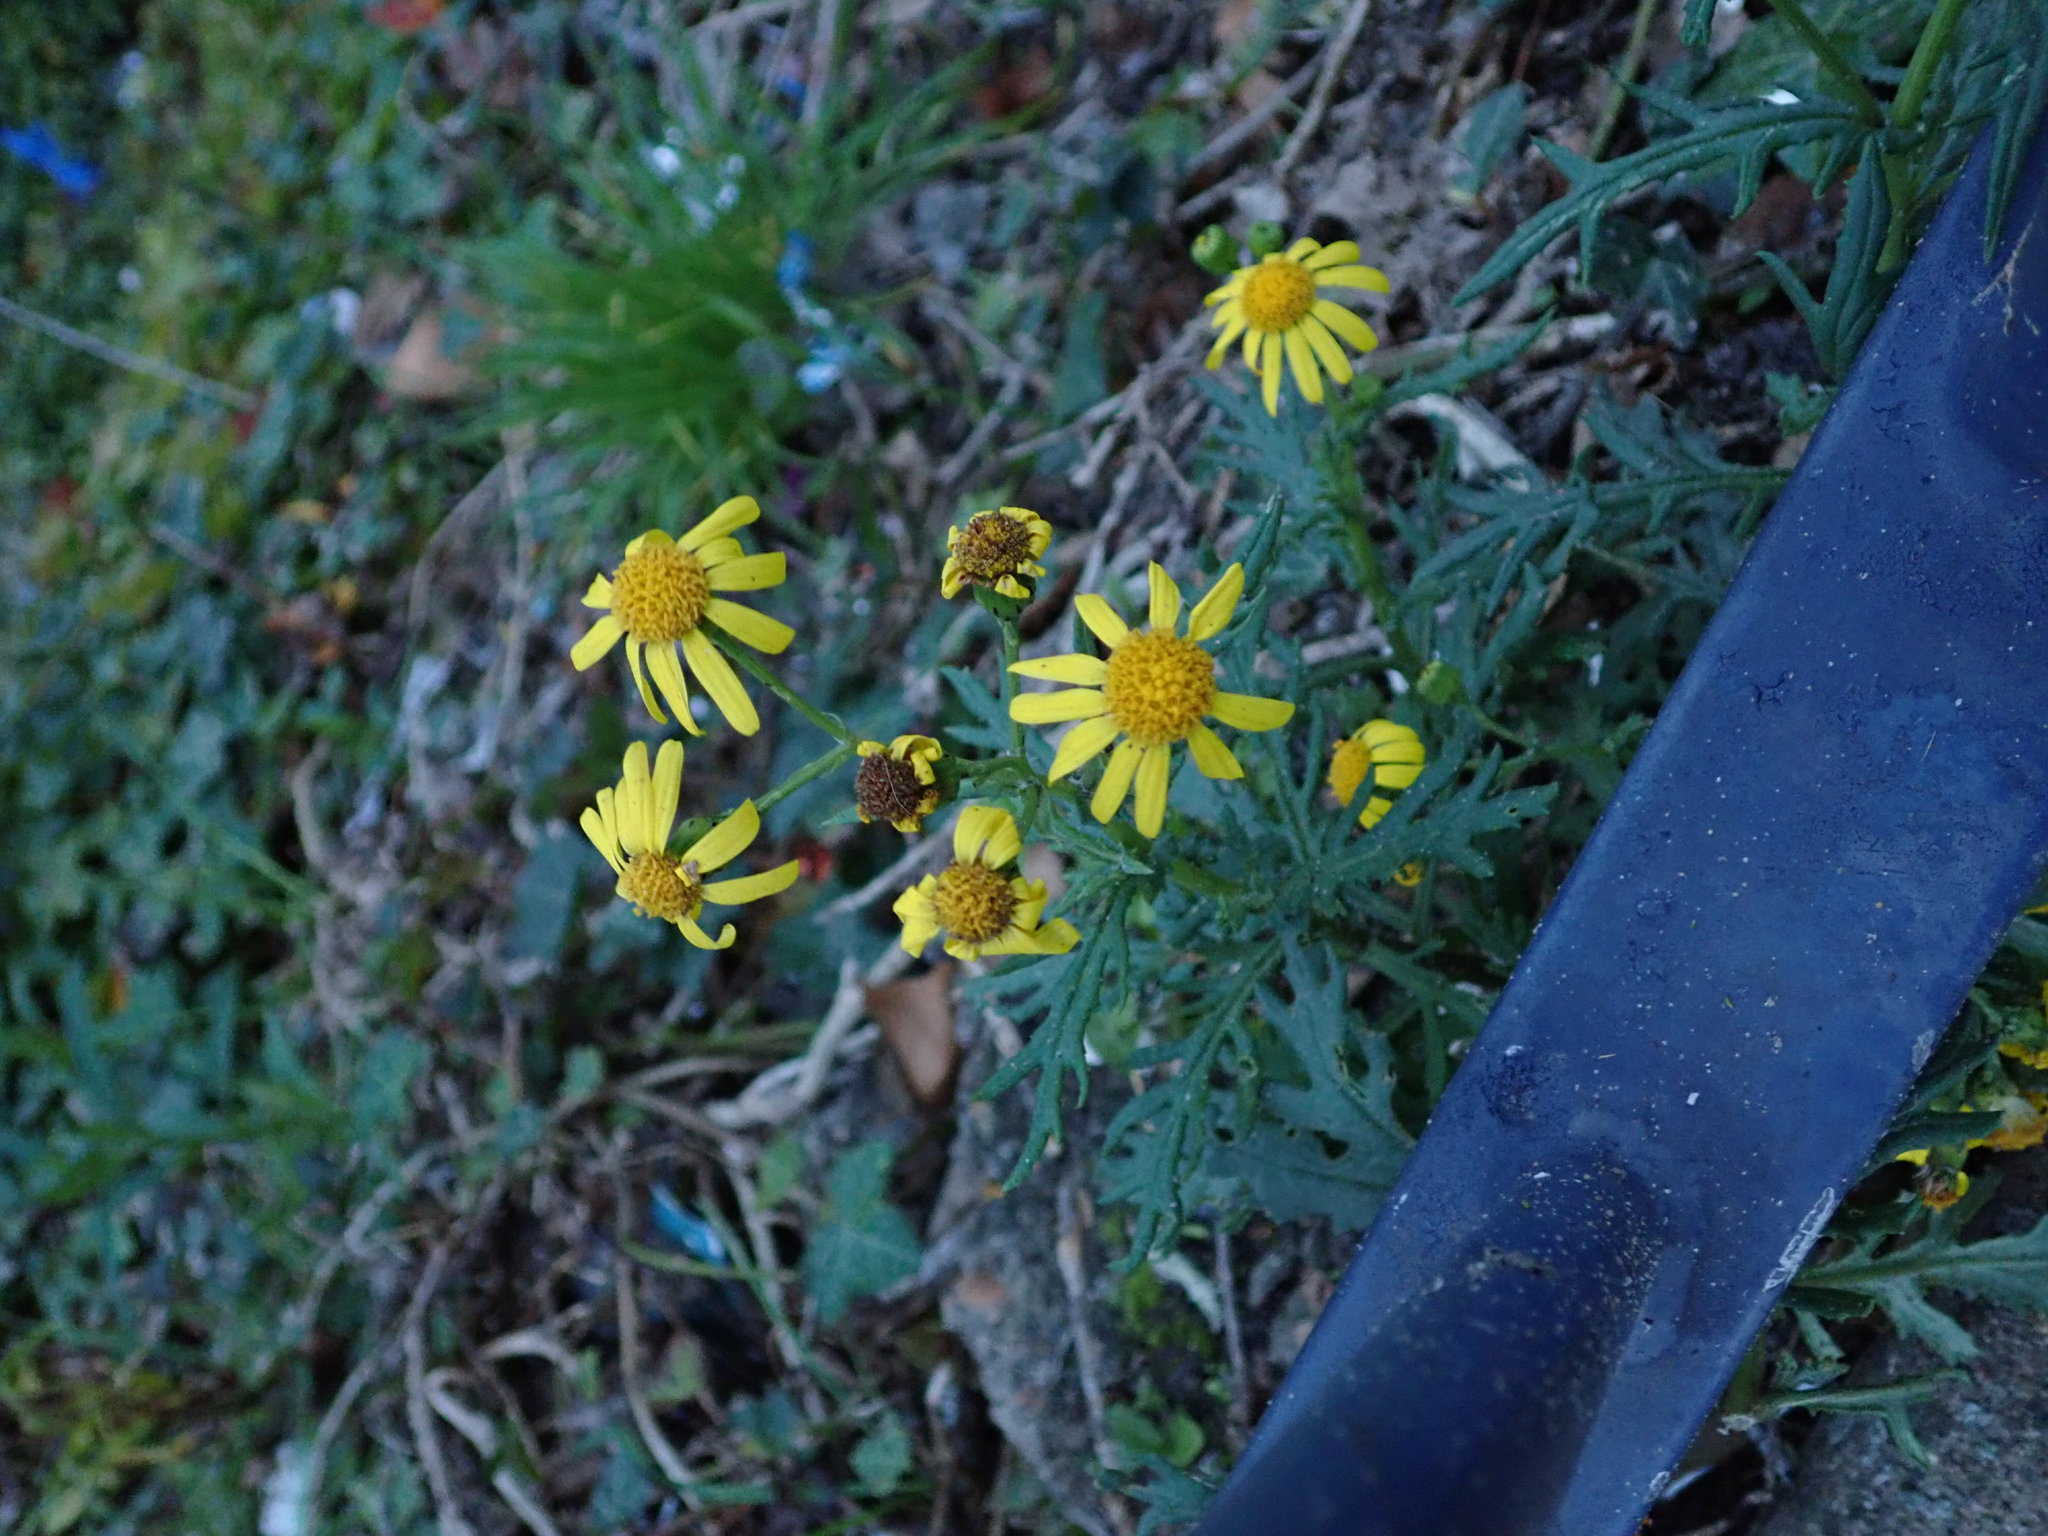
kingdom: Plantae
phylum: Tracheophyta
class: Magnoliopsida
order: Asterales
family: Asteraceae
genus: Senecio
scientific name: Senecio squalidus
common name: Oxford ragwort
